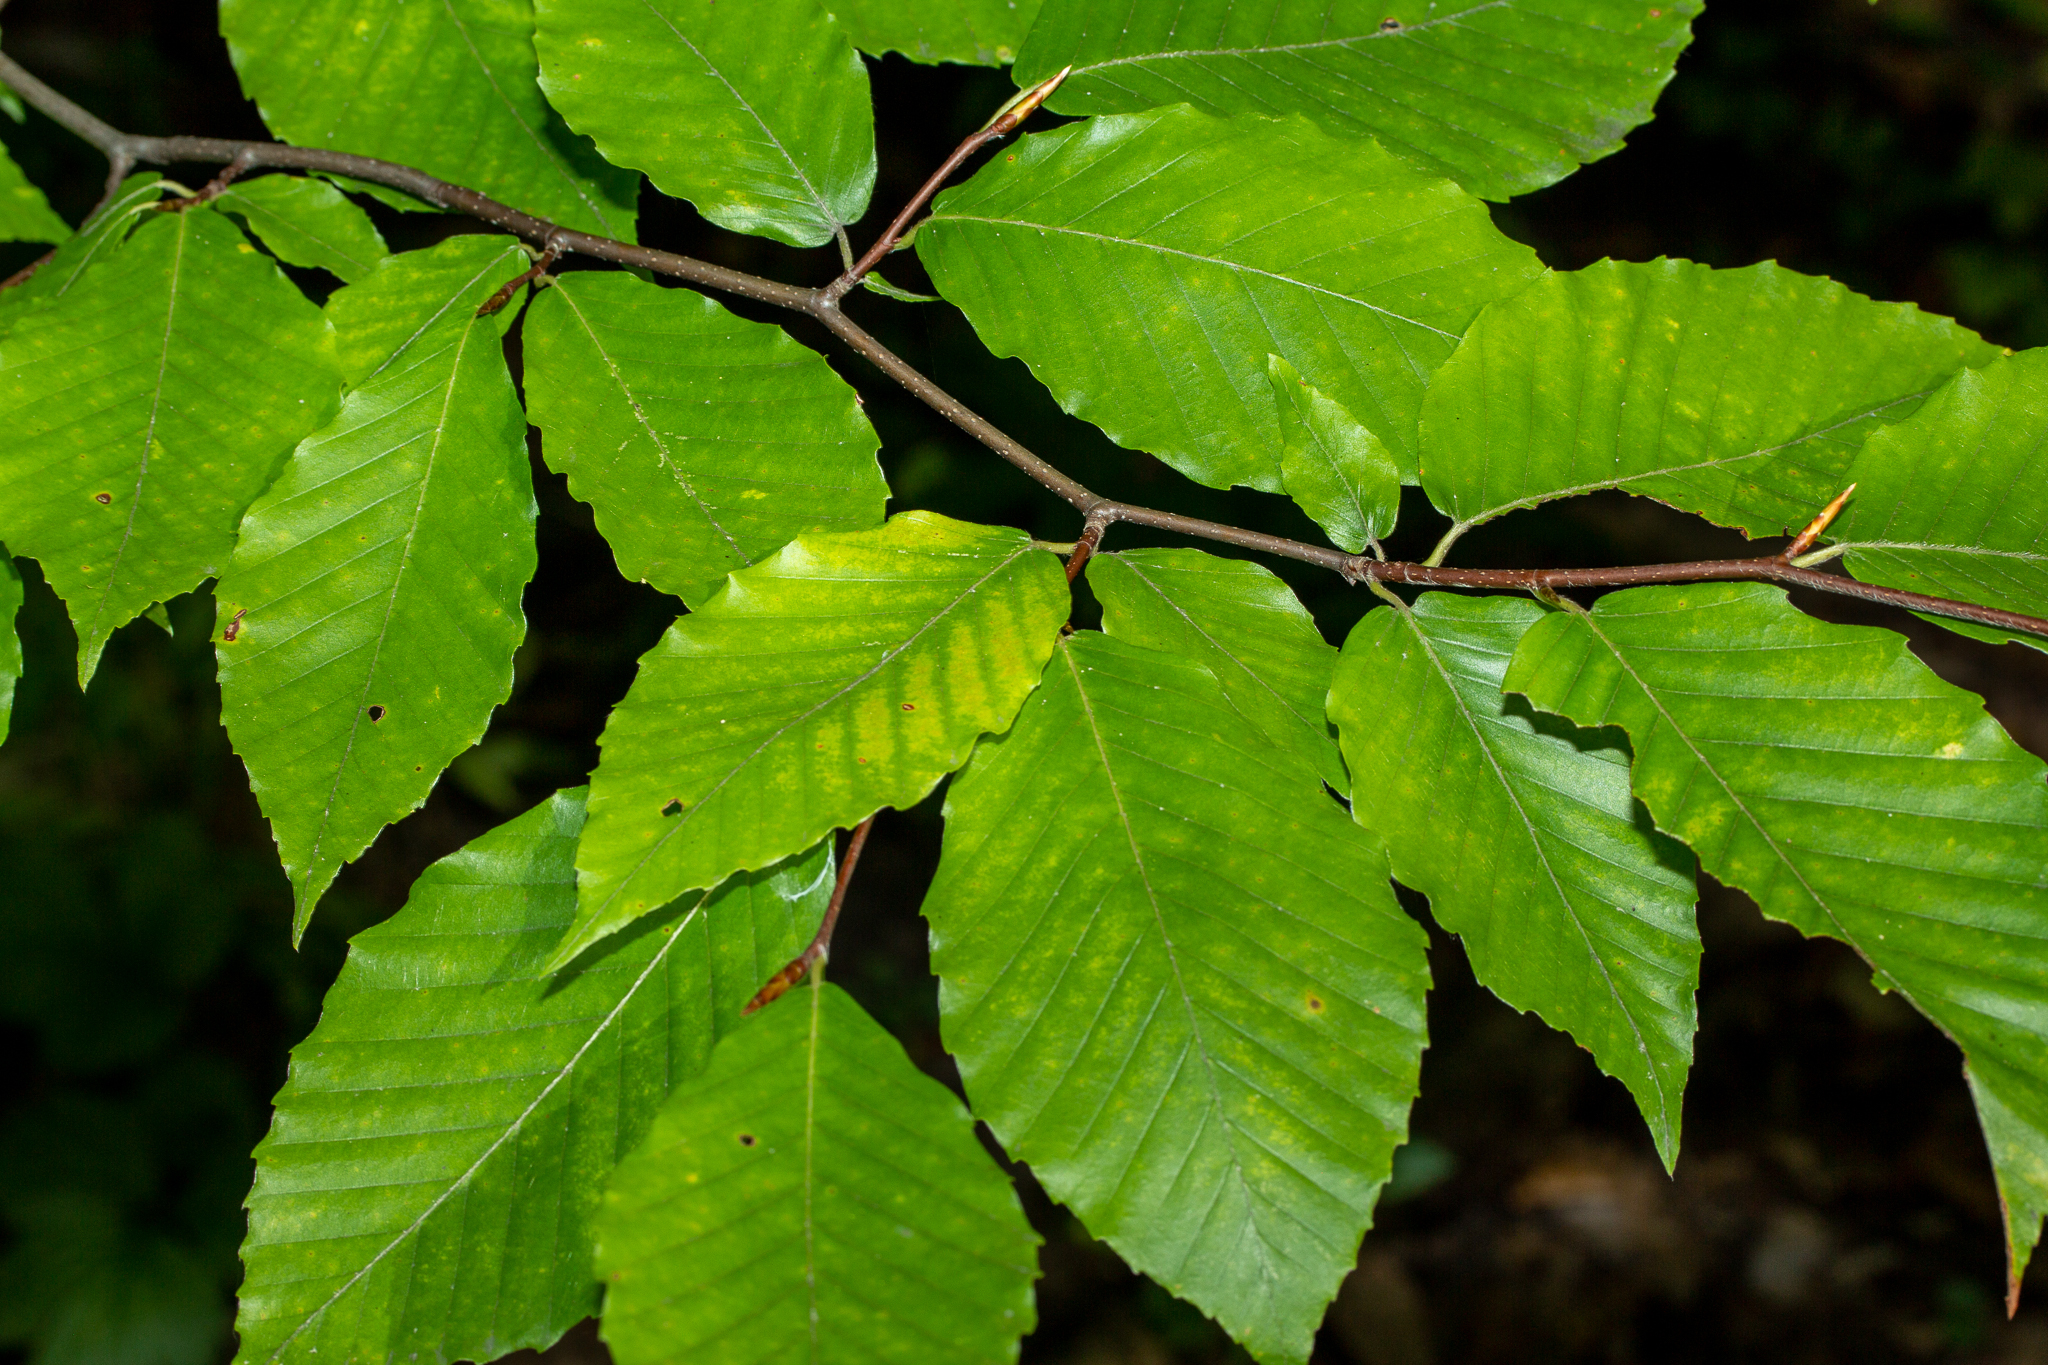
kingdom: Plantae
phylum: Tracheophyta
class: Magnoliopsida
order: Fagales
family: Fagaceae
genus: Fagus
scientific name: Fagus grandifolia
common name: American beech
